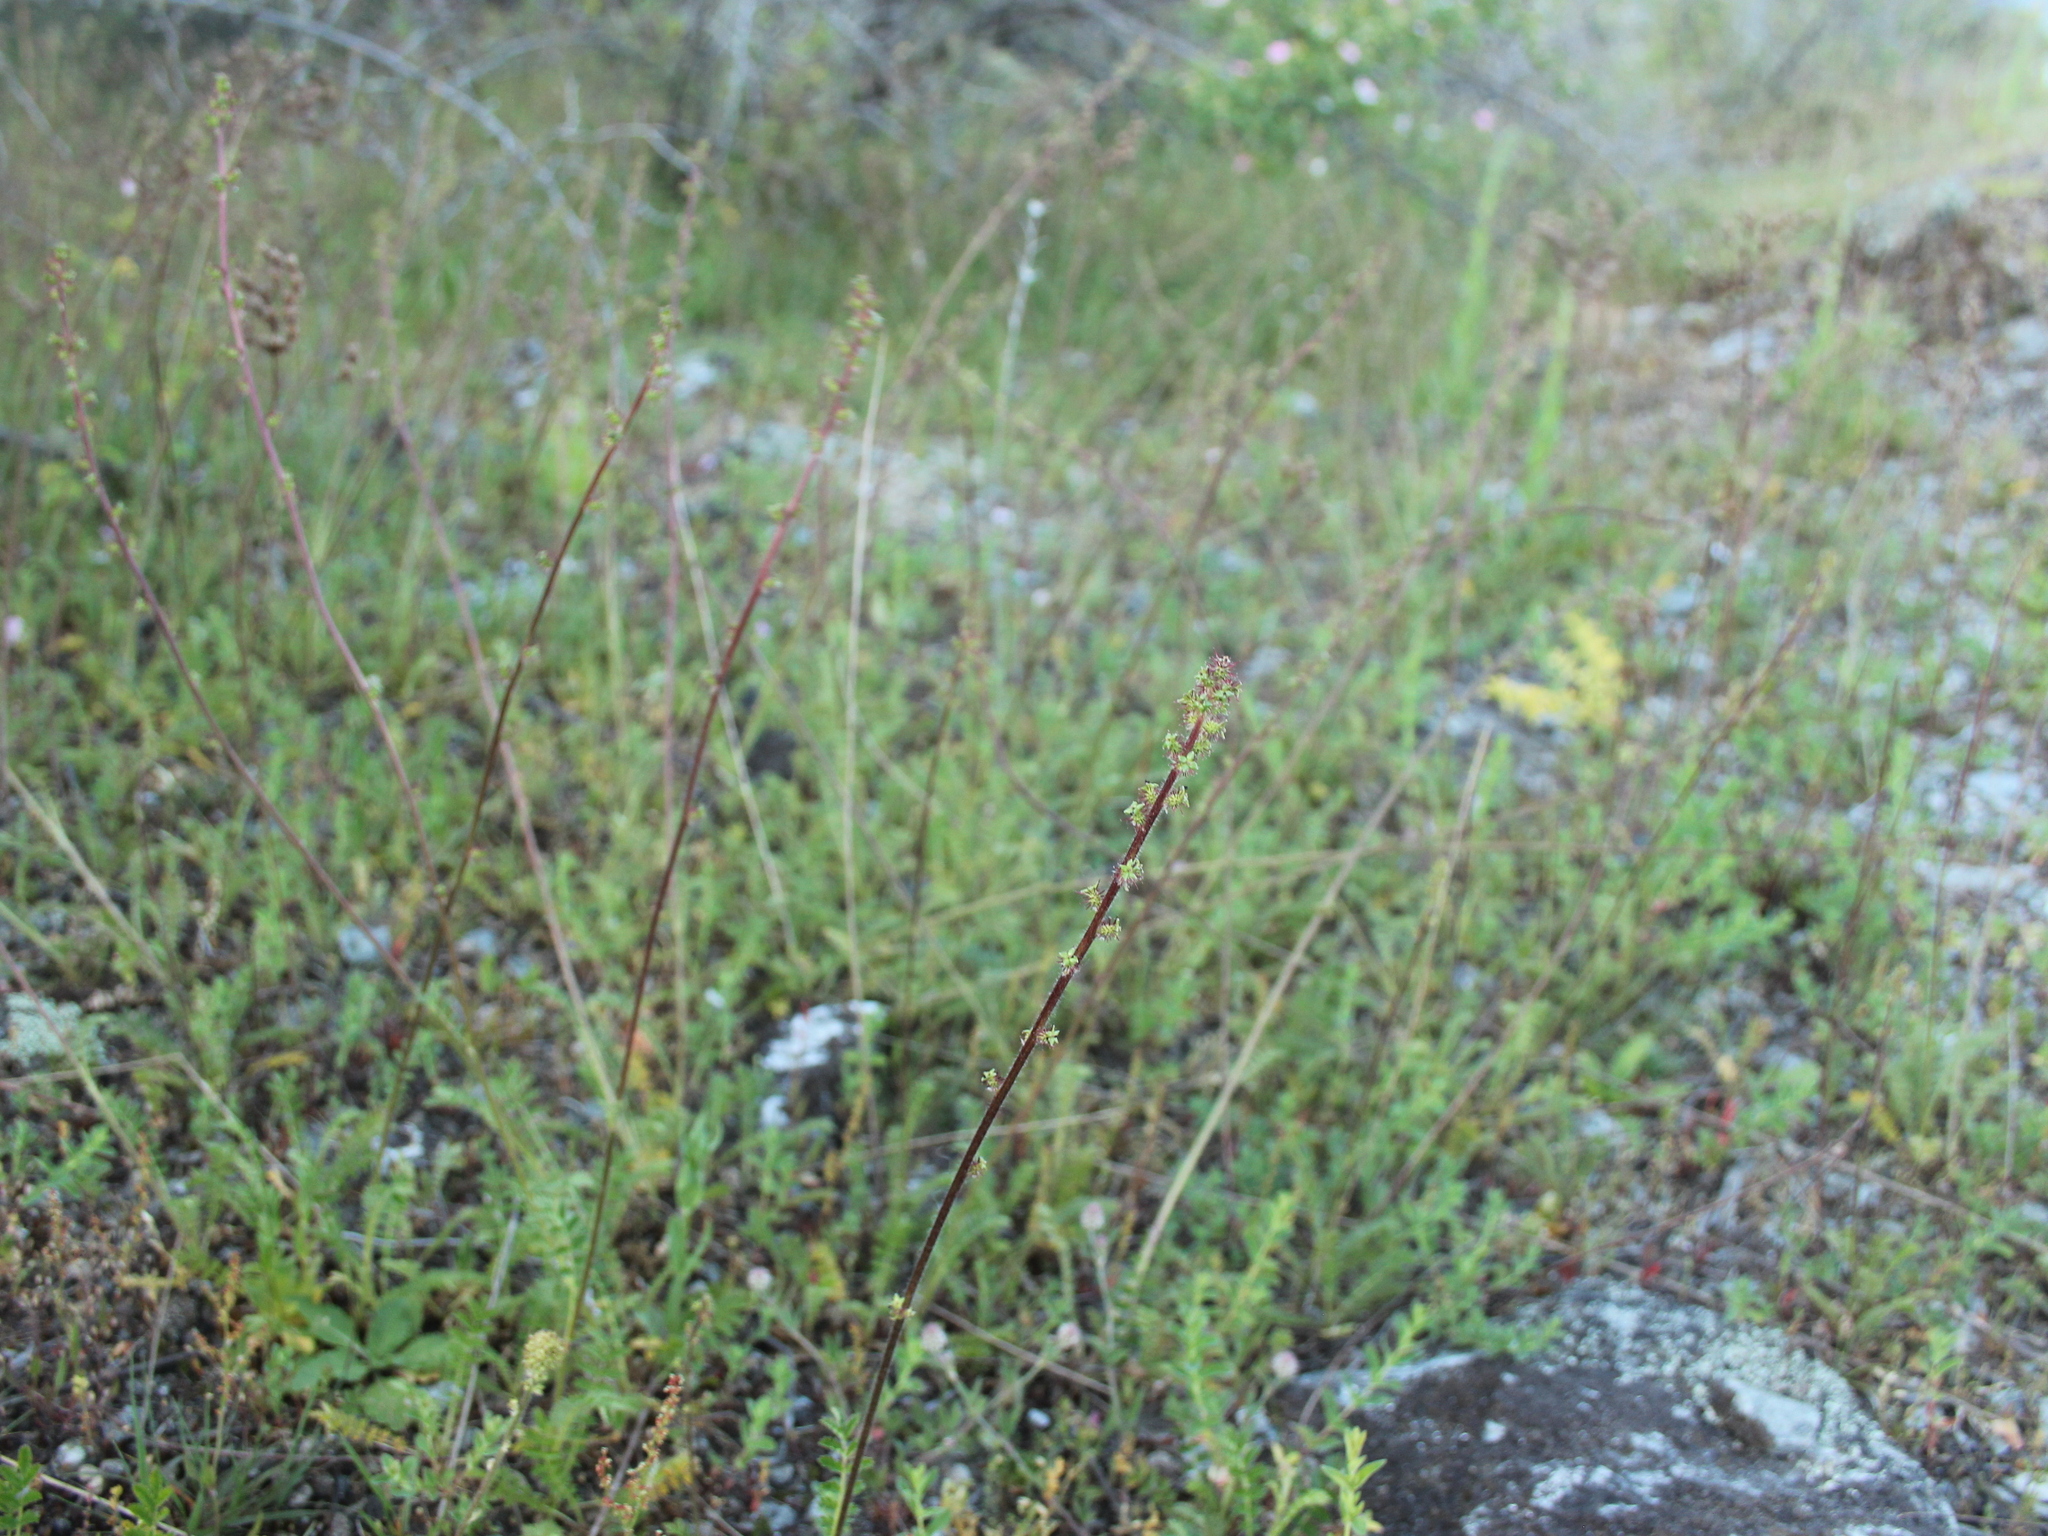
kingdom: Plantae
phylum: Tracheophyta
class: Magnoliopsida
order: Rosales
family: Rosaceae
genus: Acaena
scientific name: Acaena agnipila
